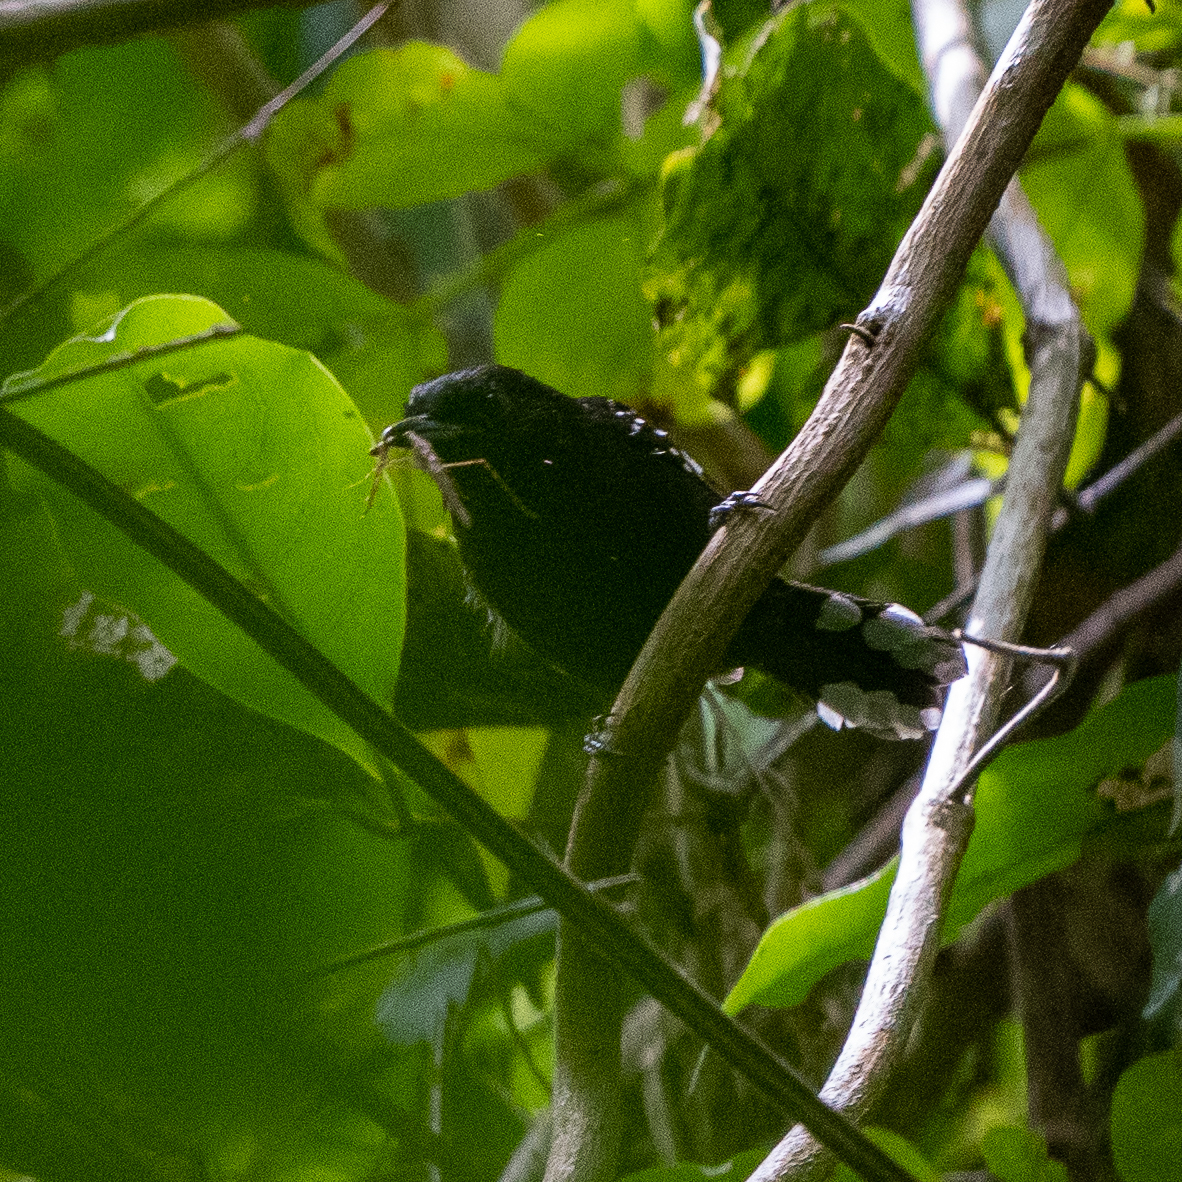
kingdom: Animalia
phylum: Chordata
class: Aves
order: Passeriformes
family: Thamnophilidae
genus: Microrhopias
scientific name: Microrhopias quixensis
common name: Dot-winged antwren
